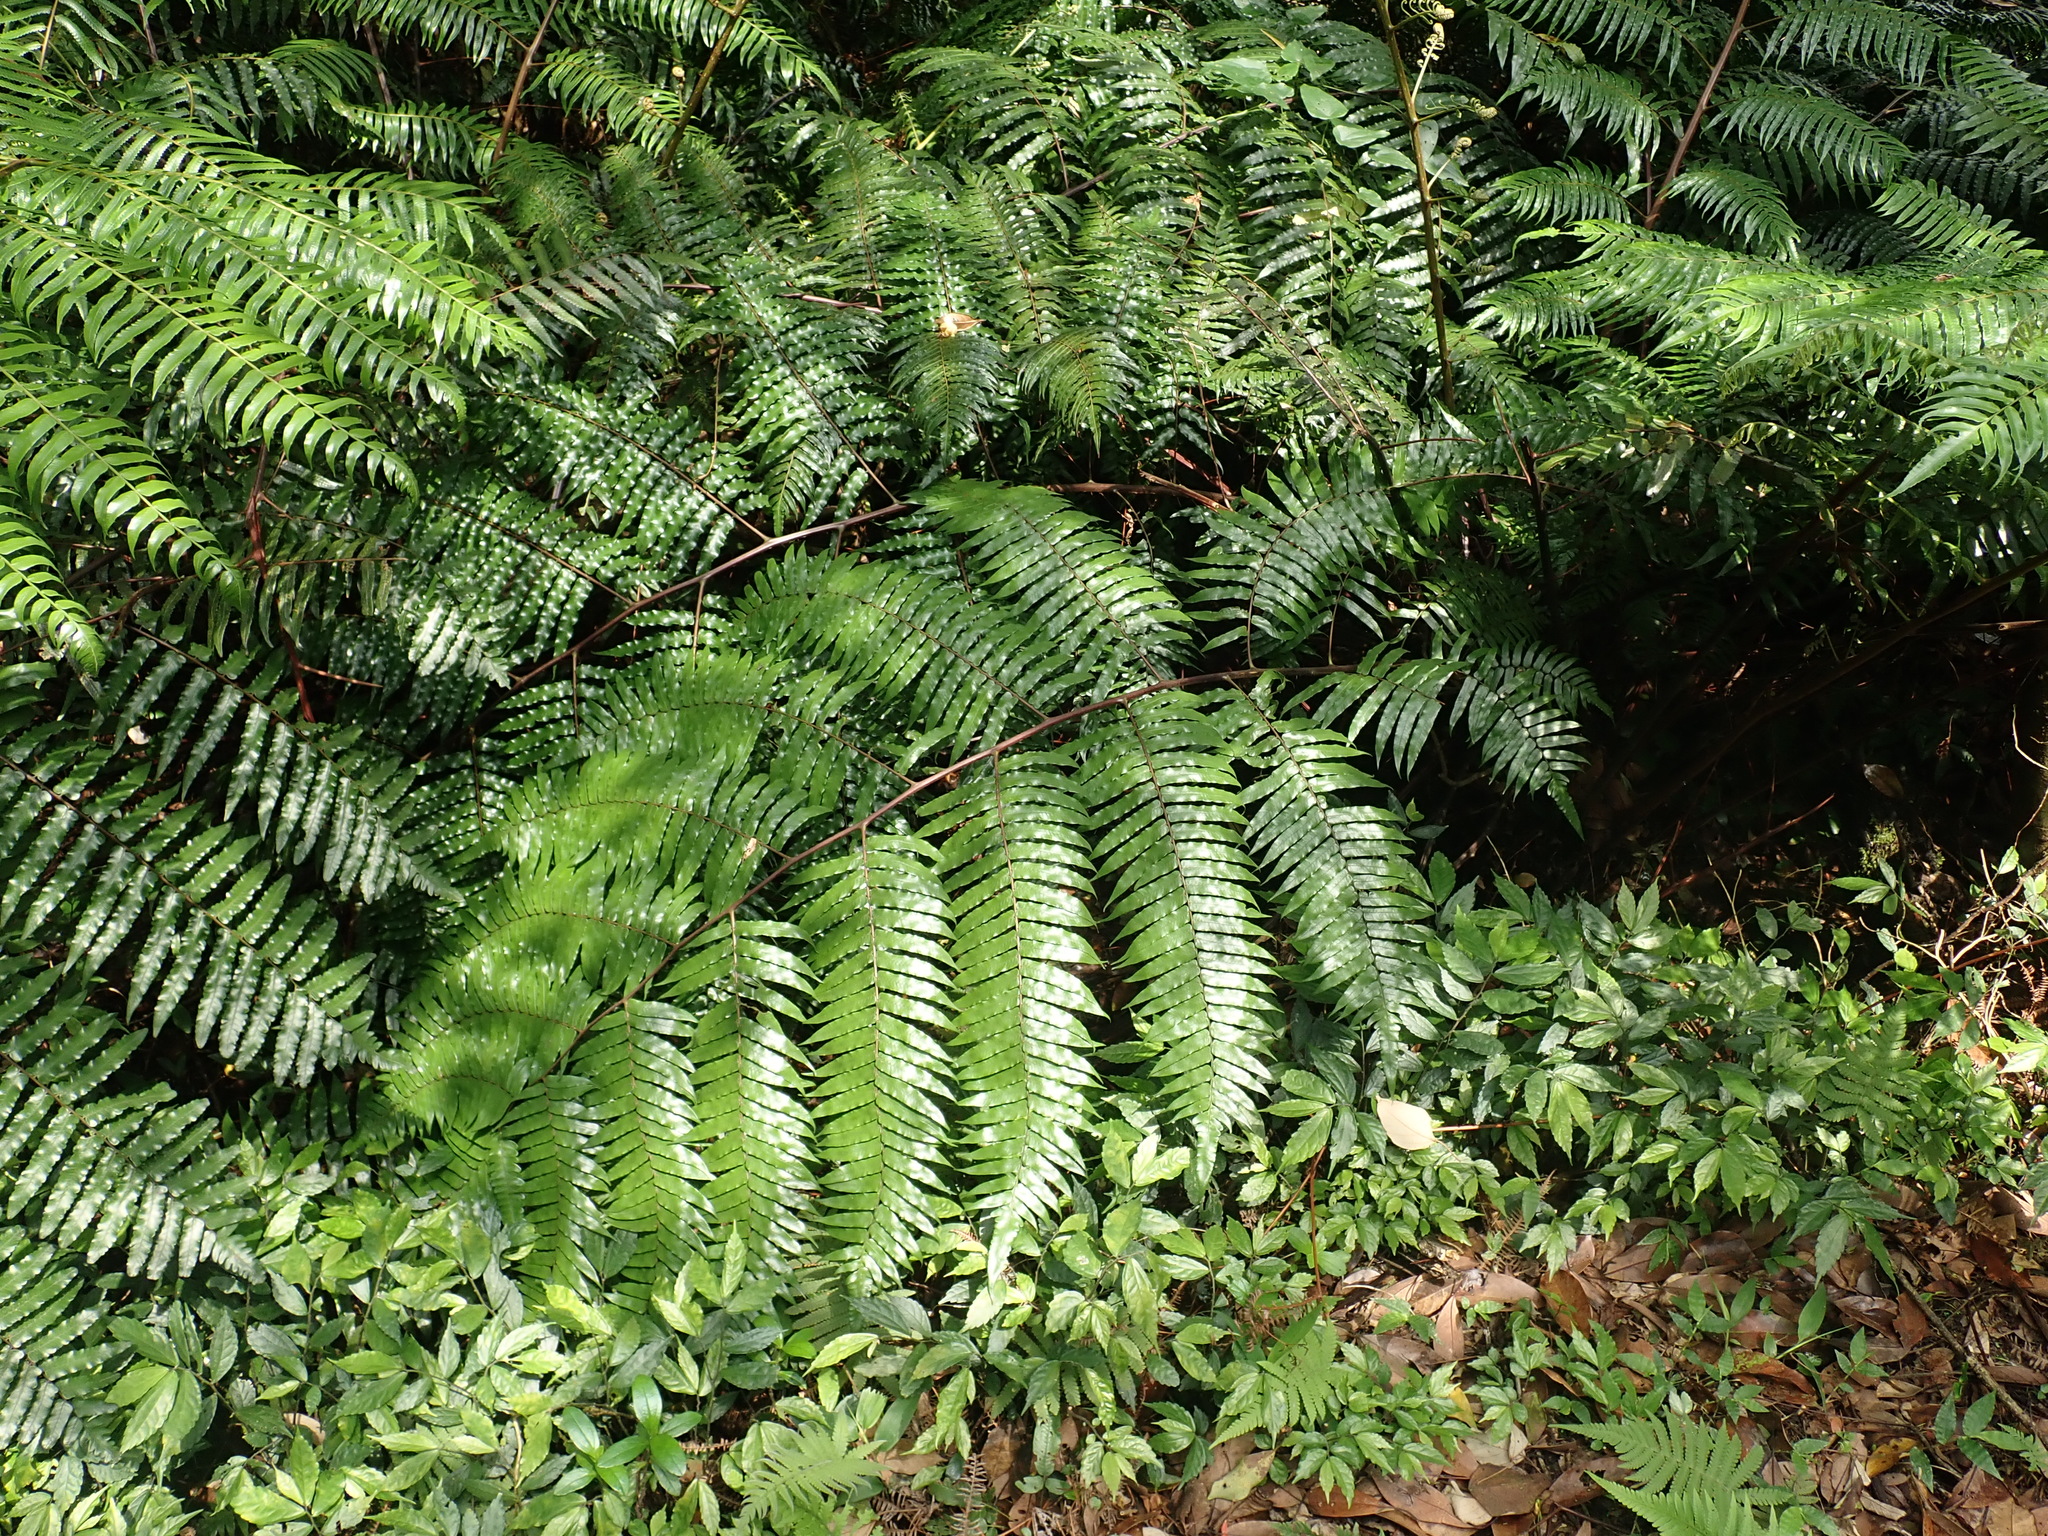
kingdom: Plantae
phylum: Tracheophyta
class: Polypodiopsida
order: Cyatheales
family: Cyatheaceae
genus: Gymnosphaera
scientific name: Gymnosphaera podophylla
